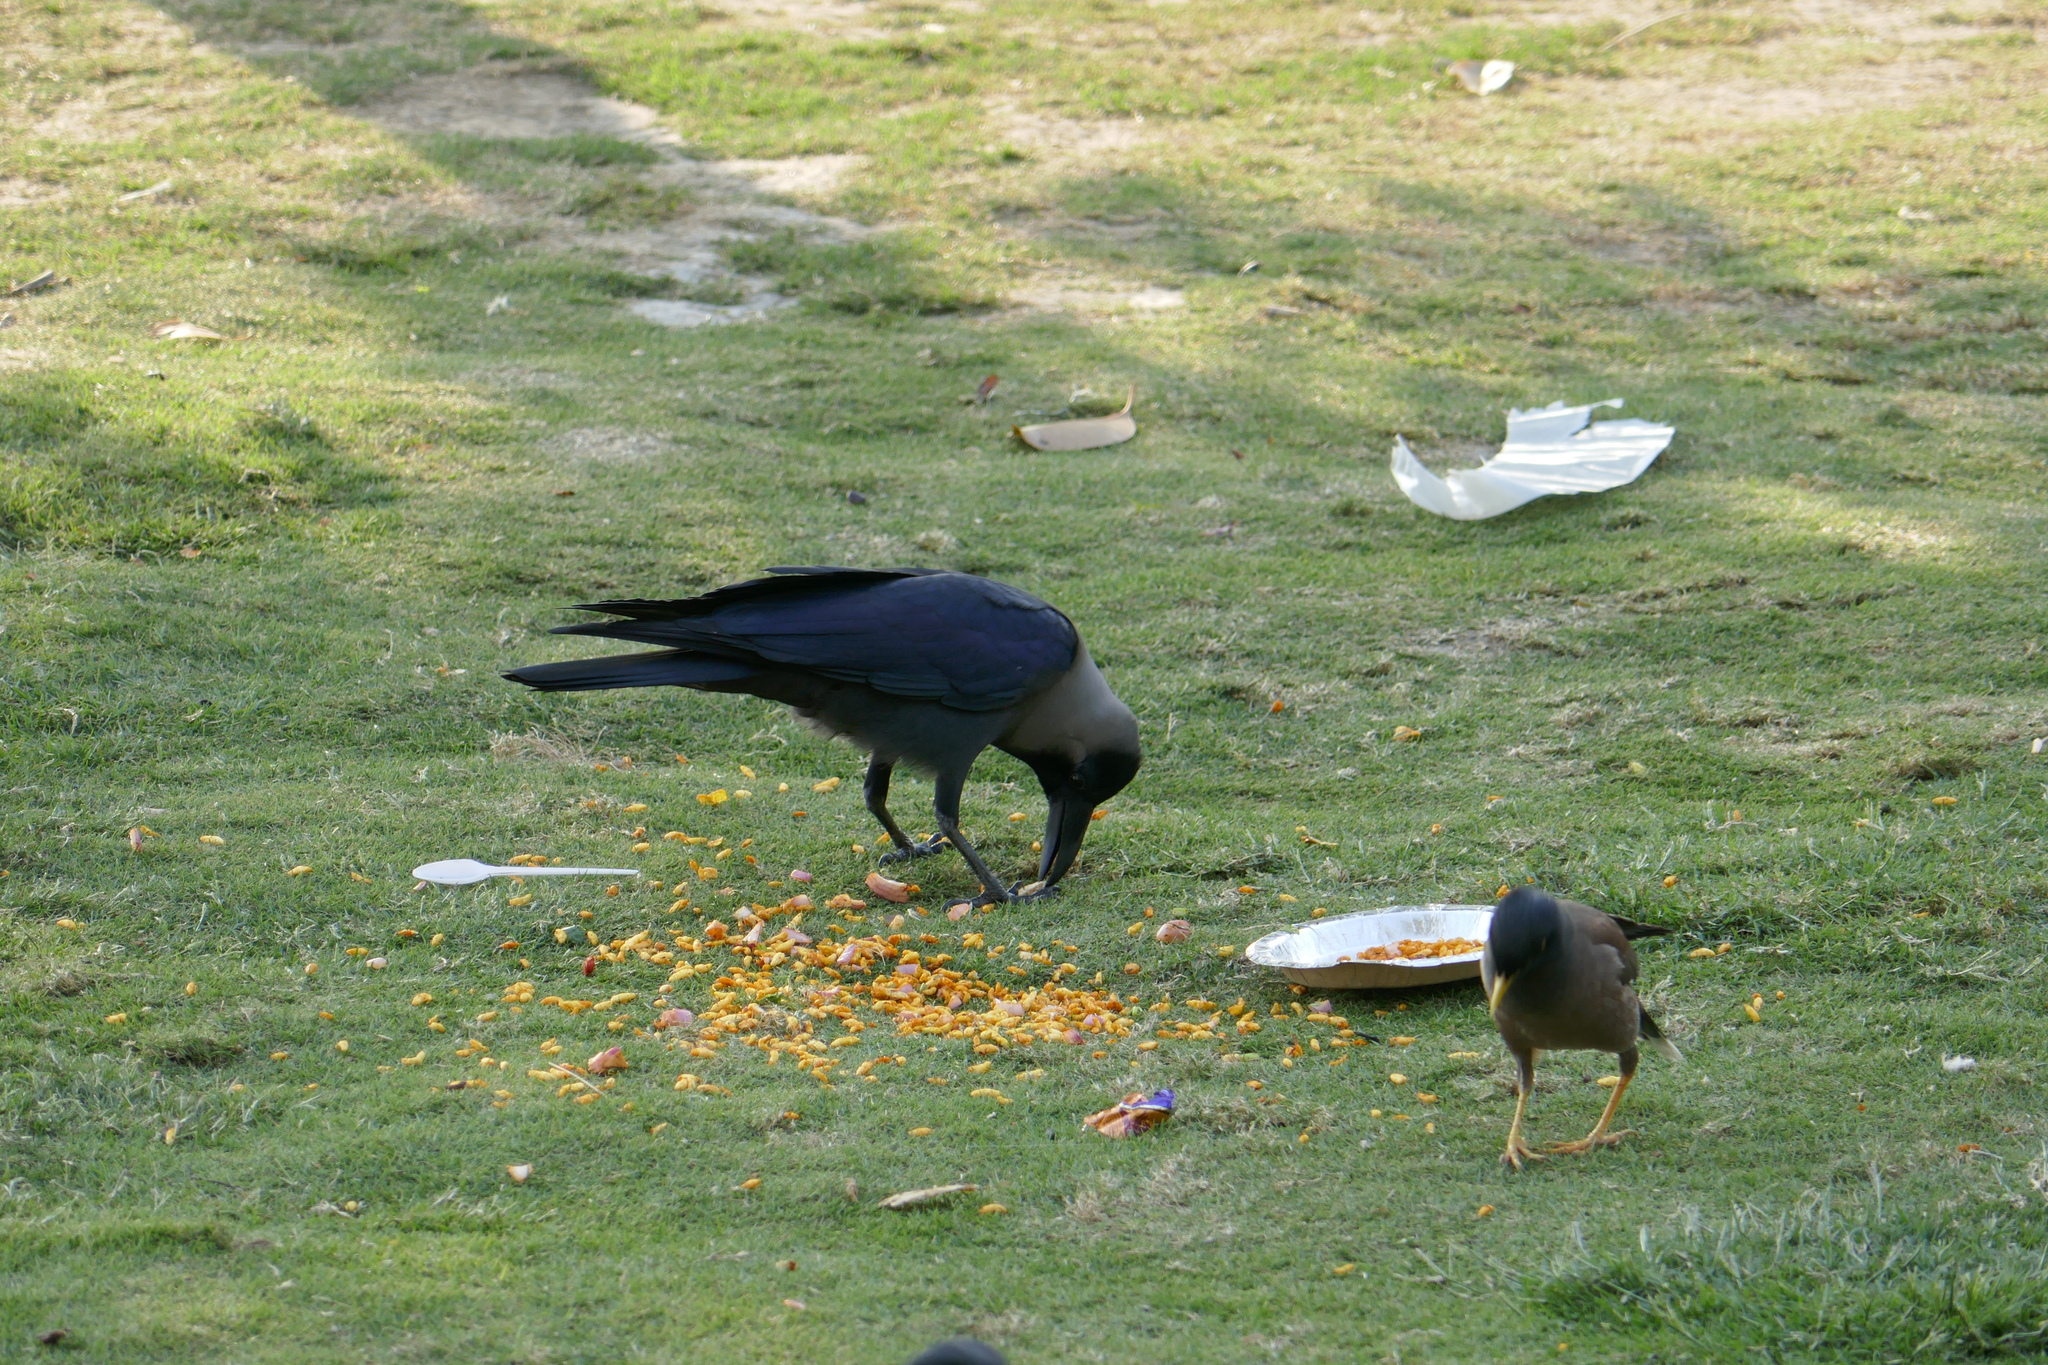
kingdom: Animalia
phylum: Chordata
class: Aves
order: Passeriformes
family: Corvidae
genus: Corvus
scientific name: Corvus splendens
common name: House crow
